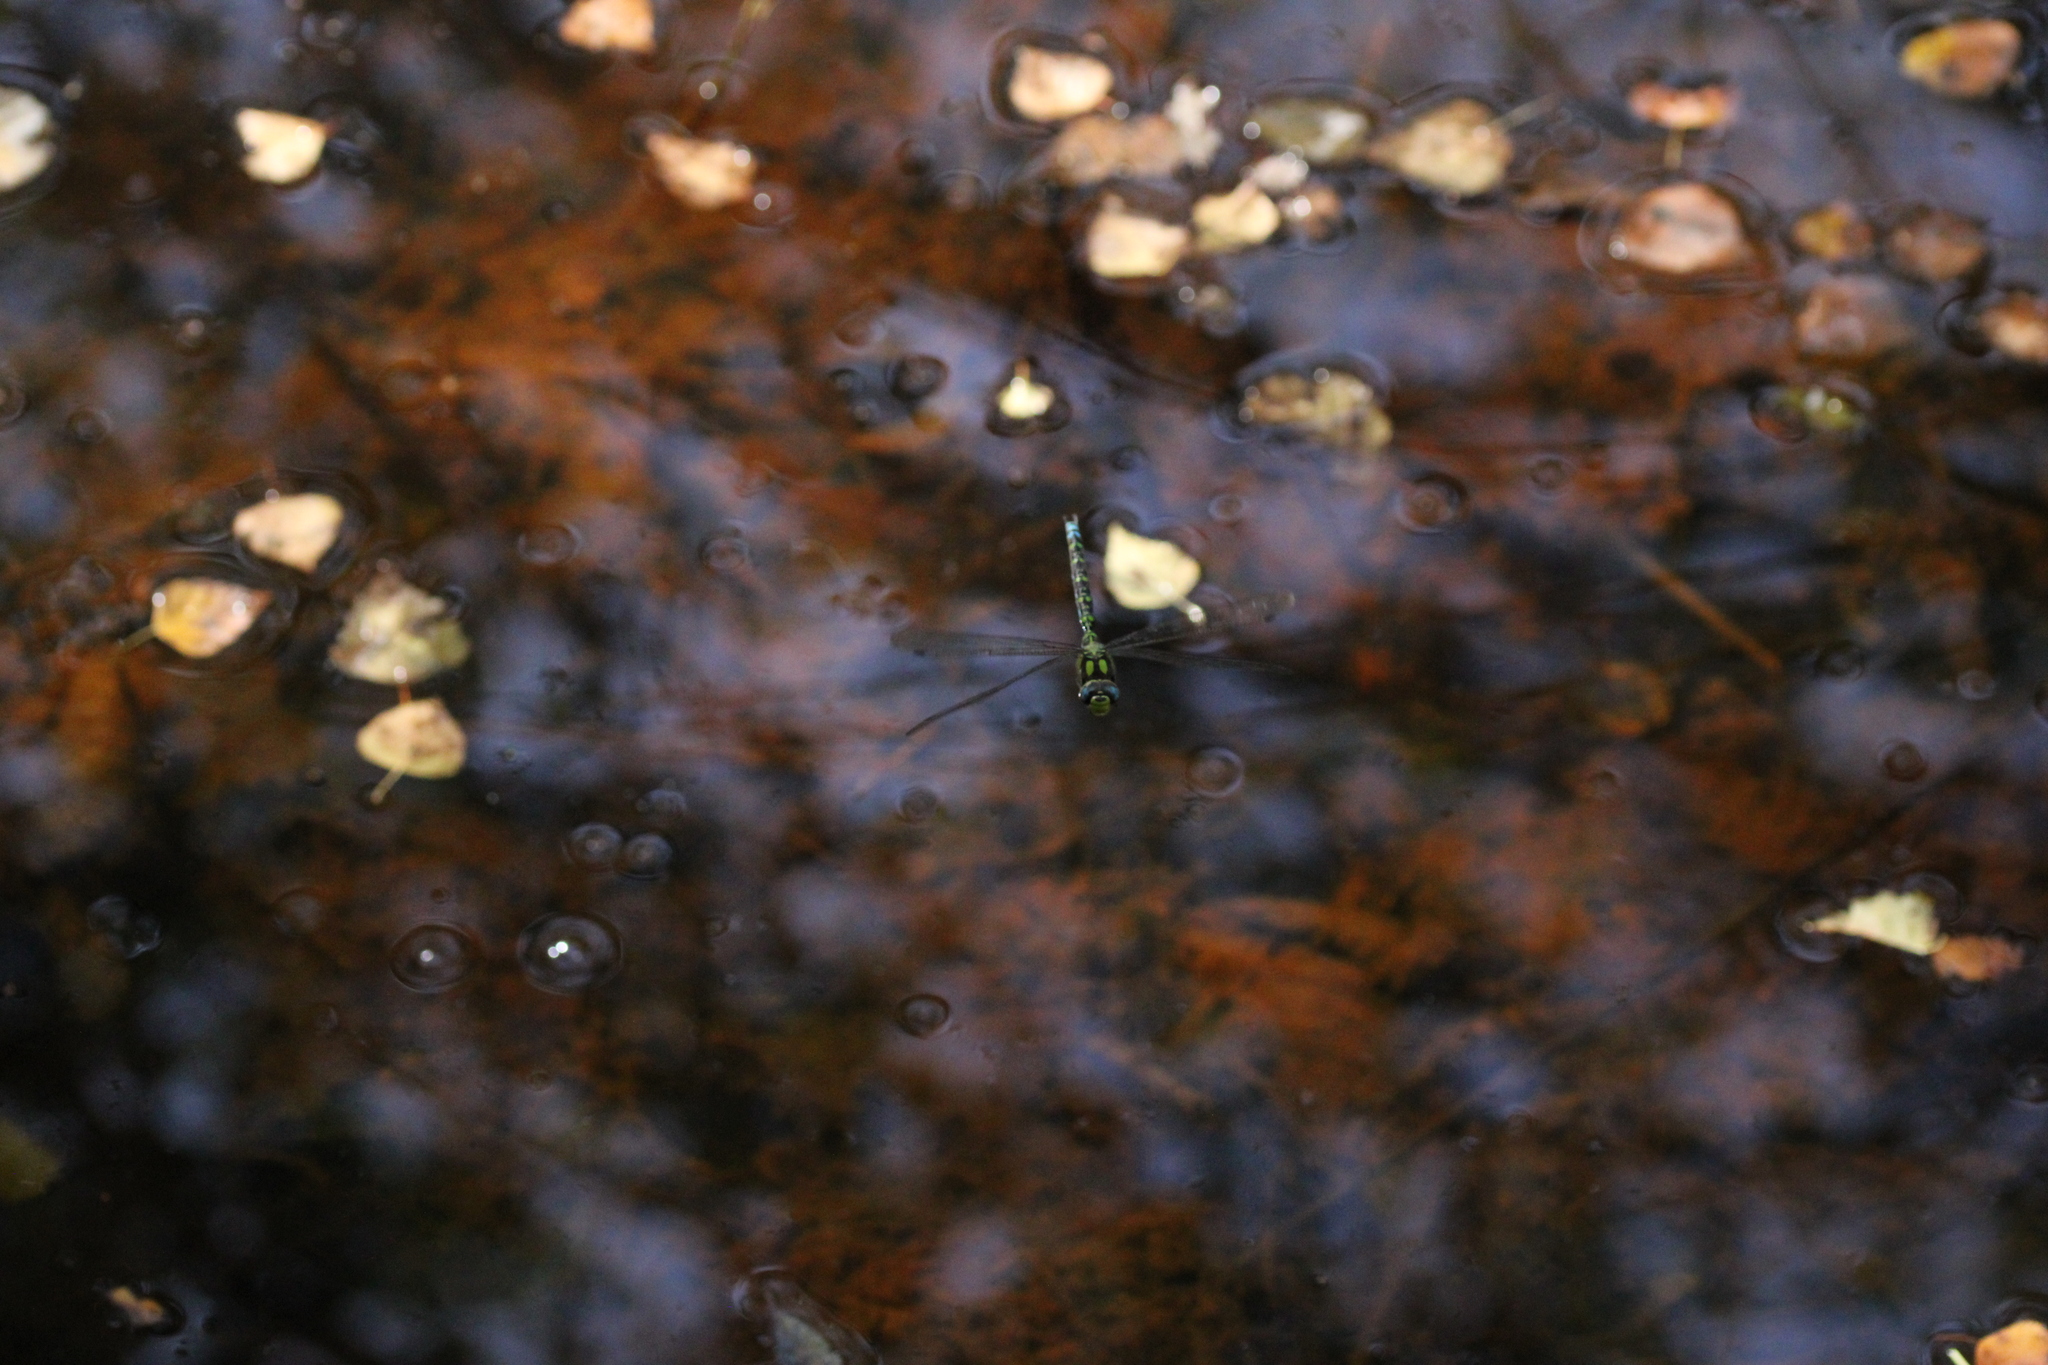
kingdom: Animalia
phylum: Arthropoda
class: Insecta
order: Odonata
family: Aeshnidae
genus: Aeshna
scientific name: Aeshna cyanea
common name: Southern hawker
